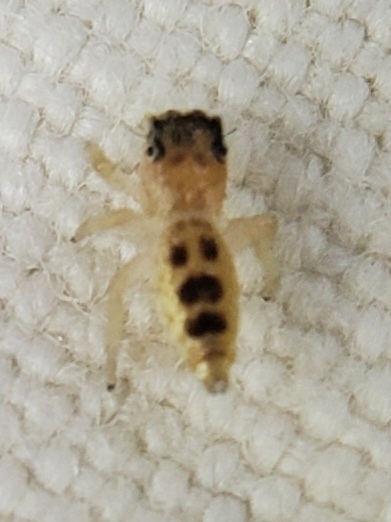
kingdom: Animalia
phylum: Arthropoda
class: Arachnida
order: Araneae
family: Salticidae
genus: Hentzia
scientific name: Hentzia mitrata
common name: White-jawed jumping spider
